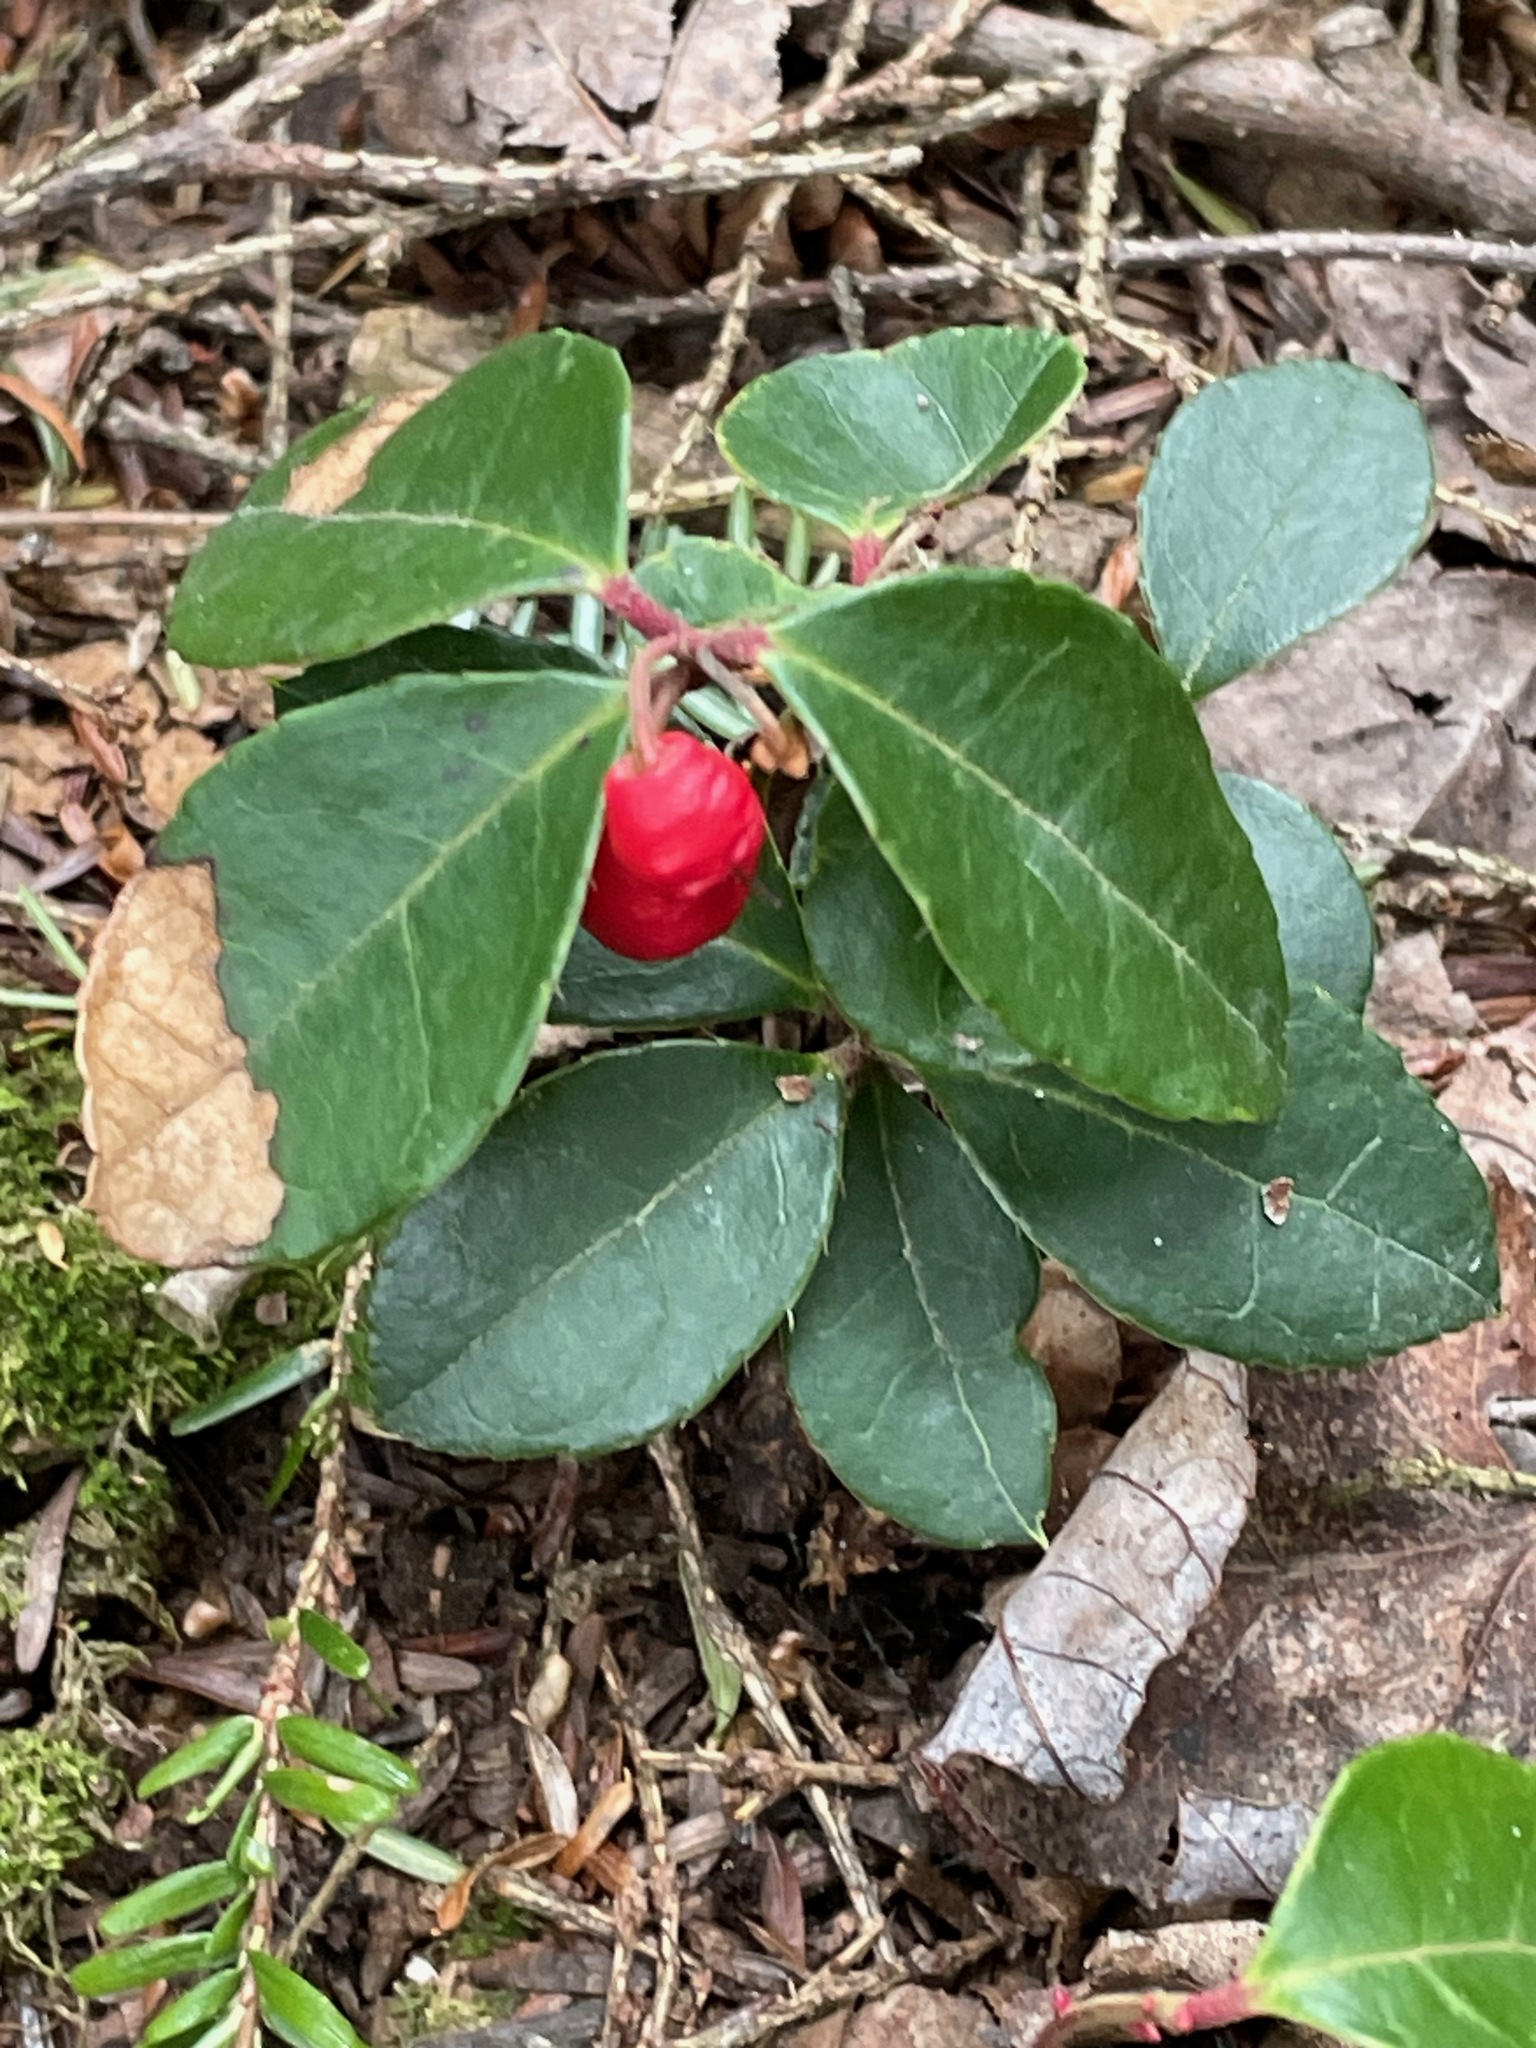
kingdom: Plantae
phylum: Tracheophyta
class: Magnoliopsida
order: Ericales
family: Ericaceae
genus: Gaultheria
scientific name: Gaultheria procumbens
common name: Checkerberry
